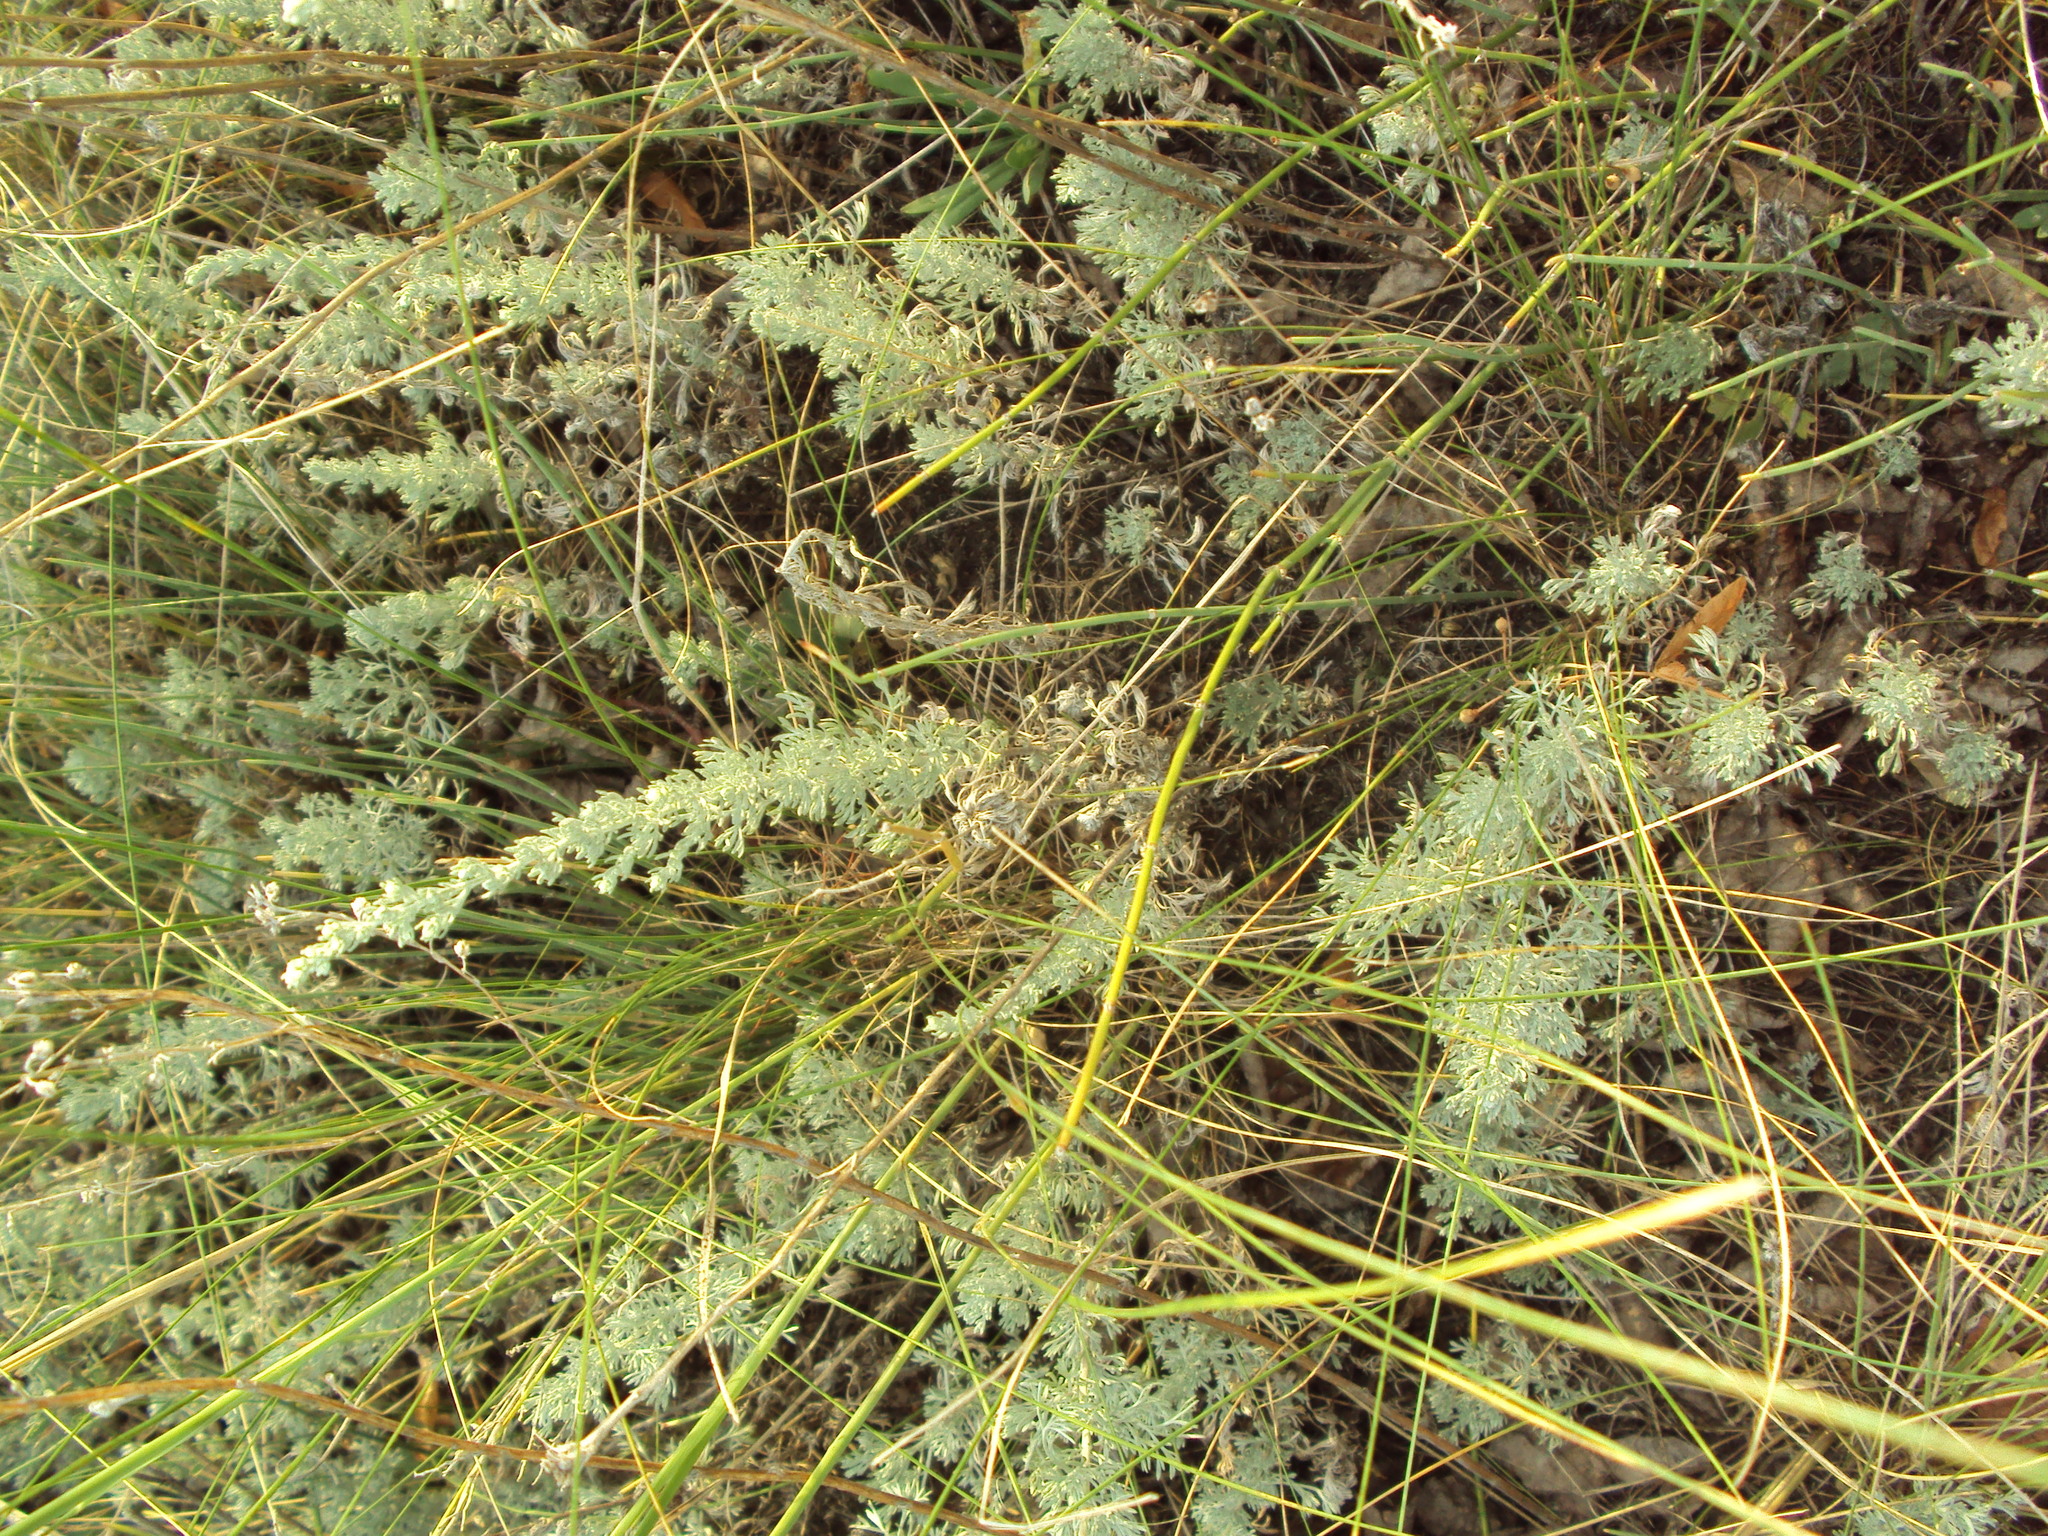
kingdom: Plantae
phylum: Tracheophyta
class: Magnoliopsida
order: Asterales
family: Asteraceae
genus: Artemisia
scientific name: Artemisia austriaca
